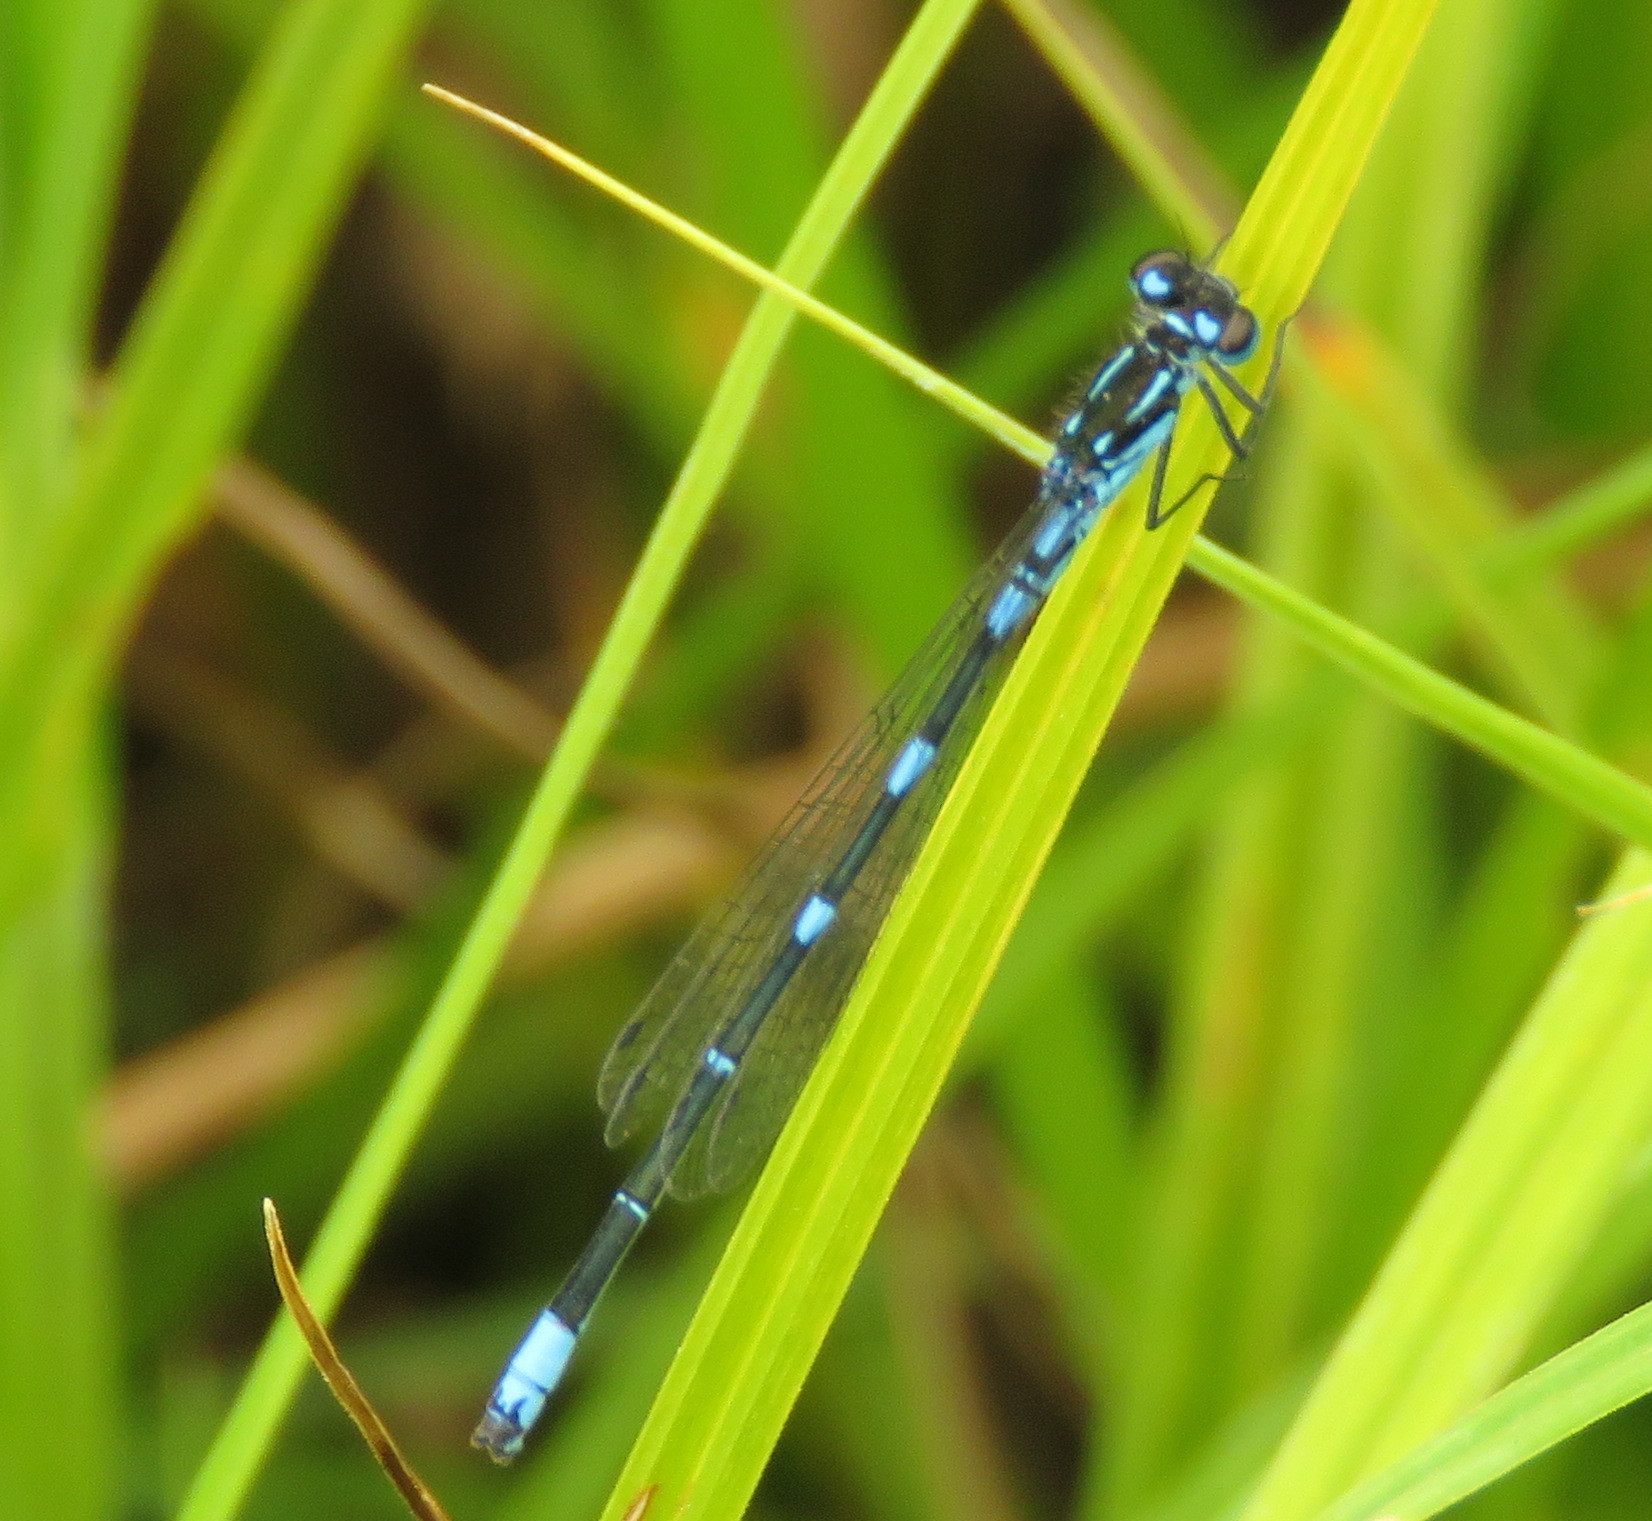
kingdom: Animalia
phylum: Arthropoda
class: Insecta
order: Odonata
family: Coenagrionidae
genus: Coenagrion
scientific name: Coenagrion pulchellum
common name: Variable bluet
